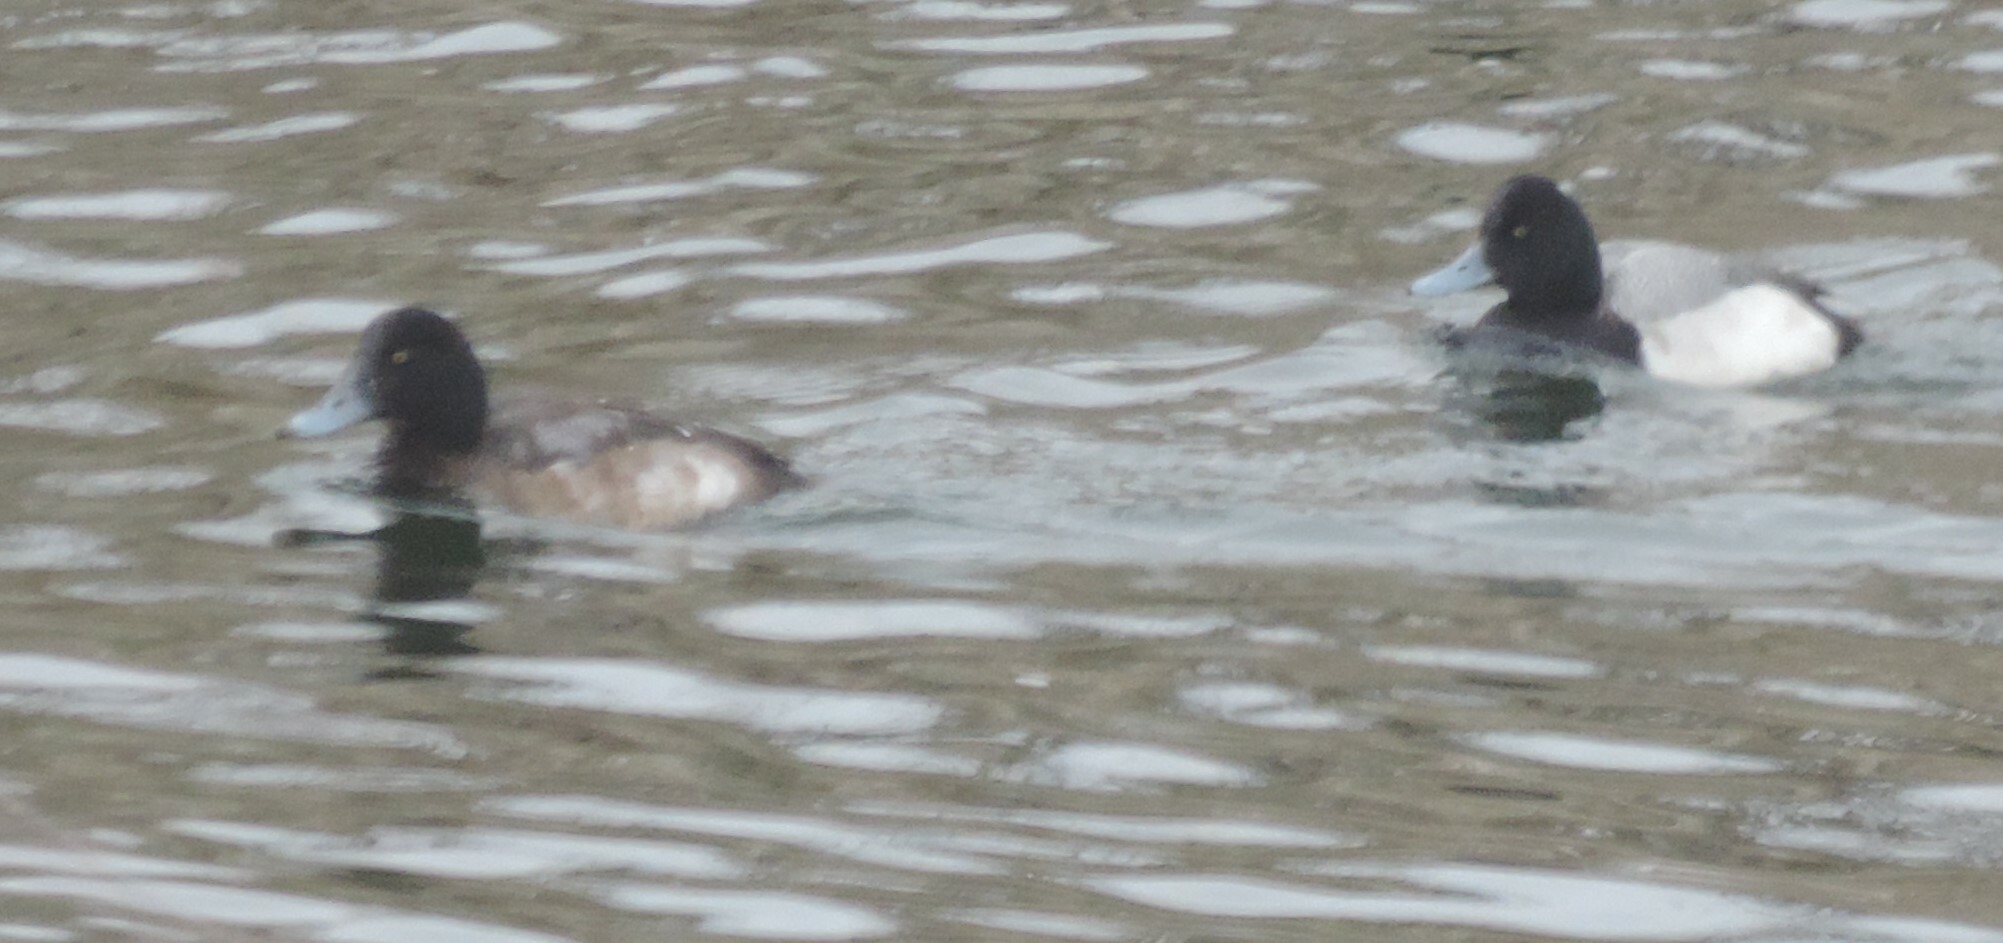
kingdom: Animalia
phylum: Chordata
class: Aves
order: Anseriformes
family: Anatidae
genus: Aythya
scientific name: Aythya marila
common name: Greater scaup
